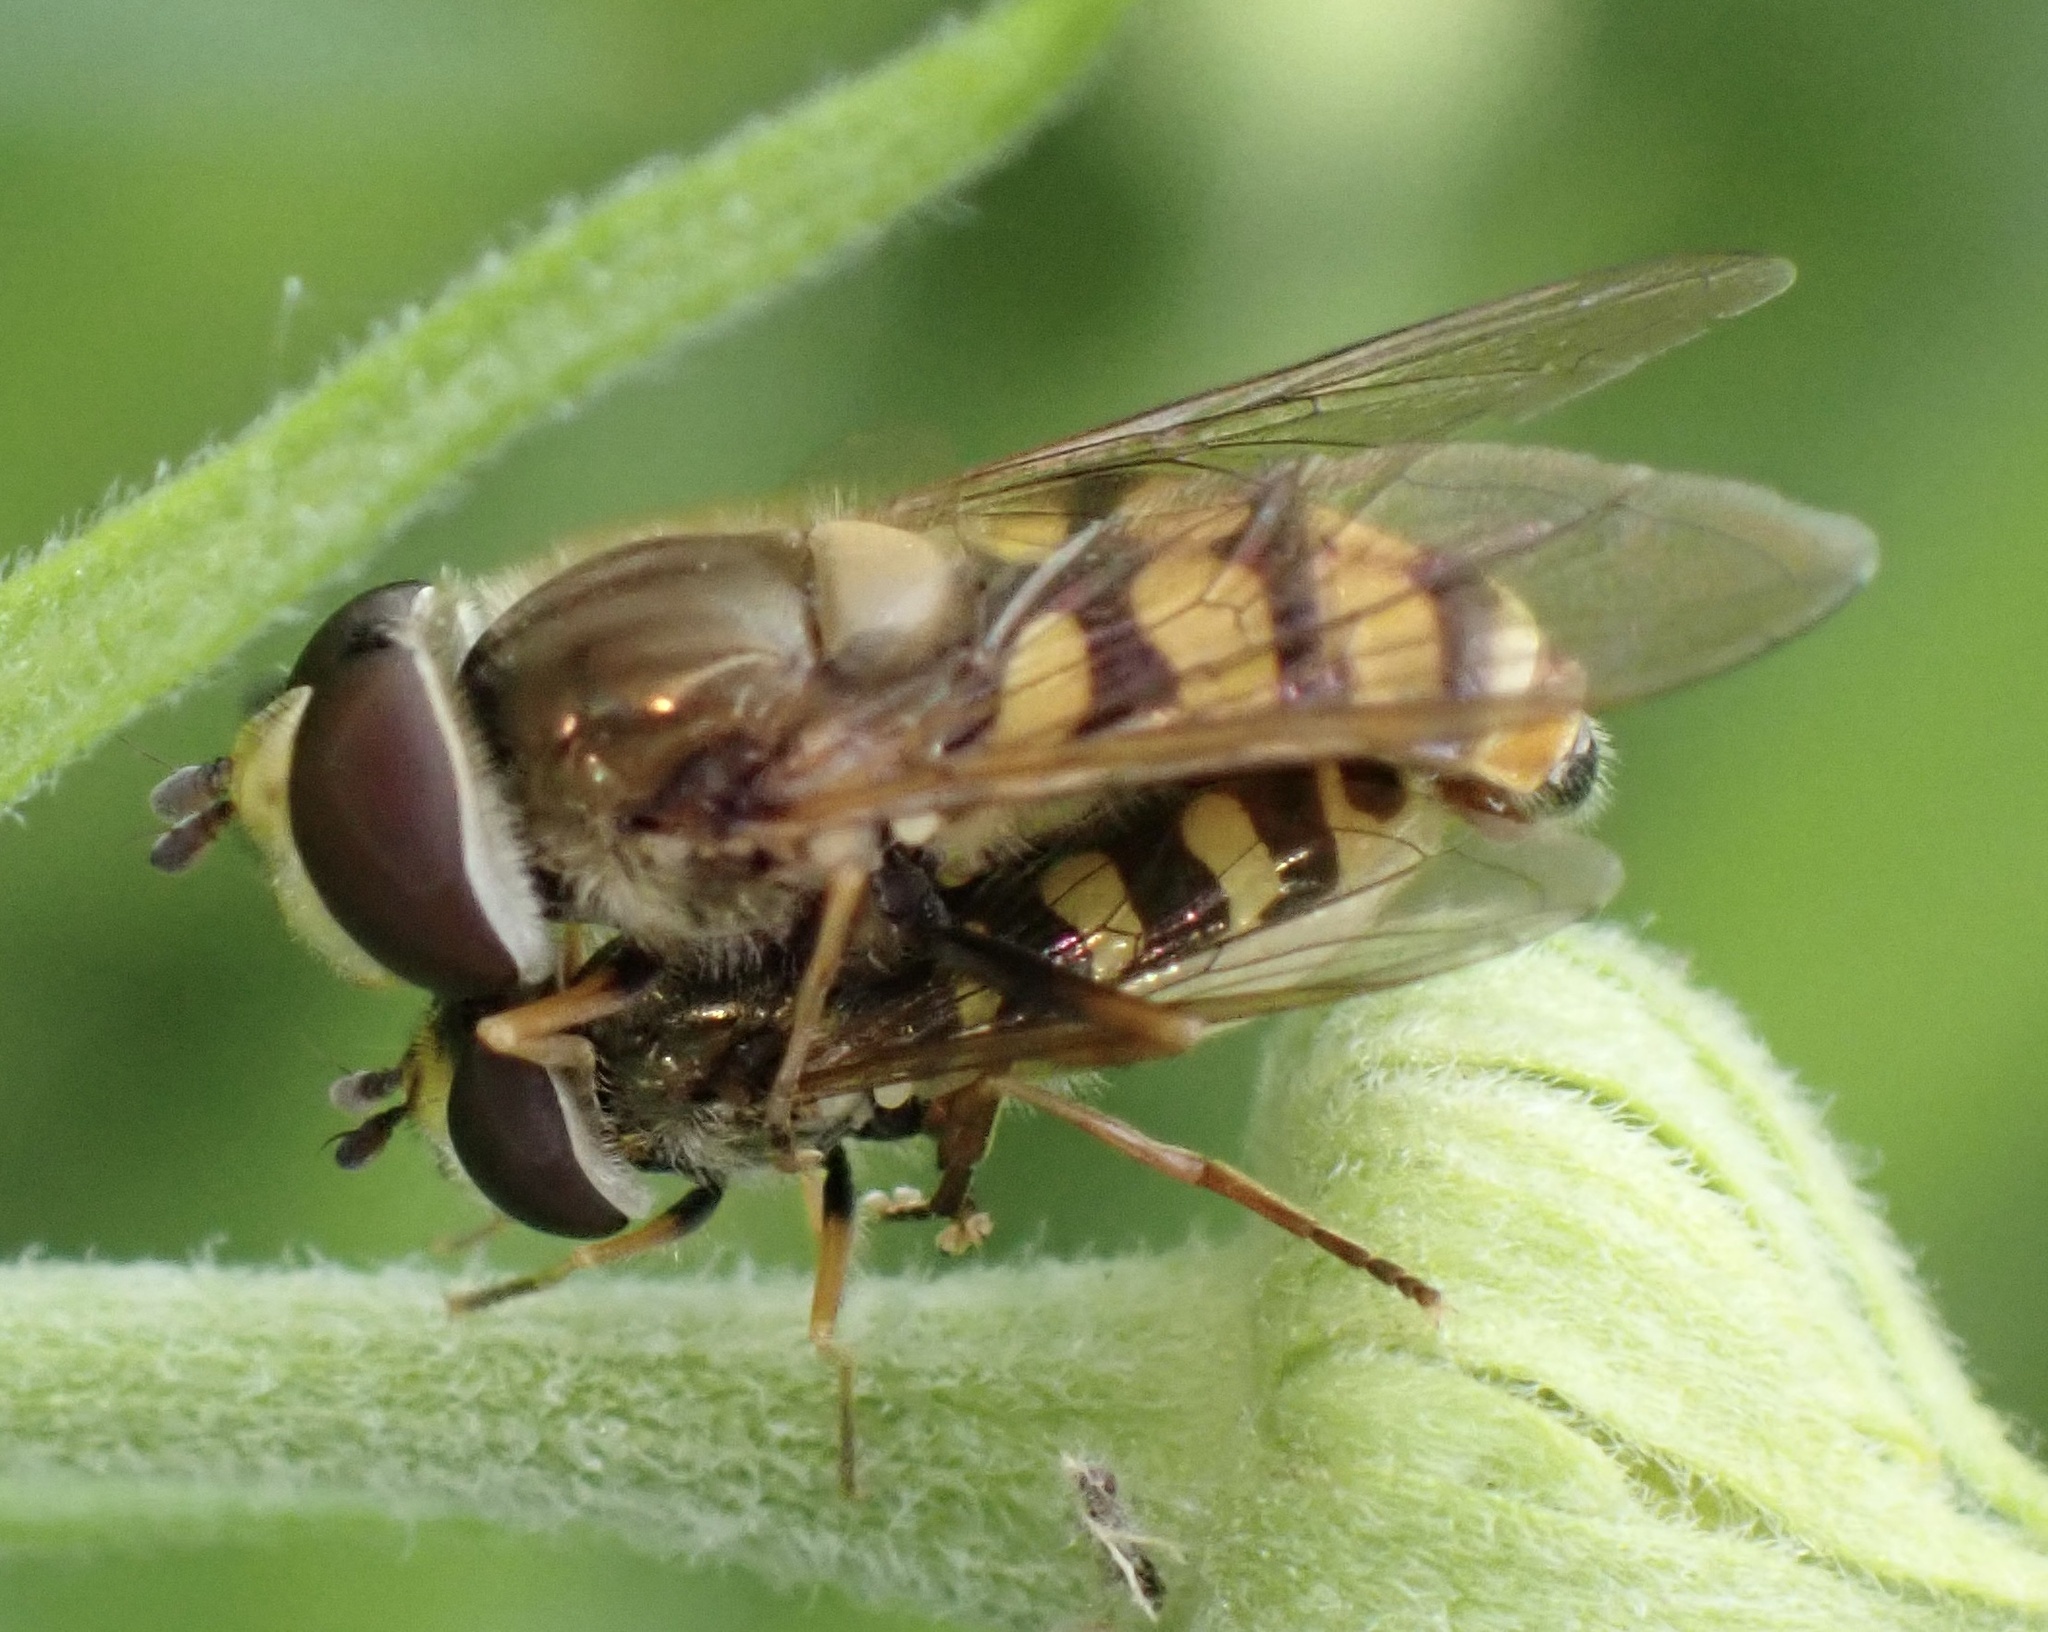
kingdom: Animalia
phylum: Arthropoda
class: Insecta
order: Diptera
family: Syrphidae
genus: Eupeodes
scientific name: Eupeodes corollae
